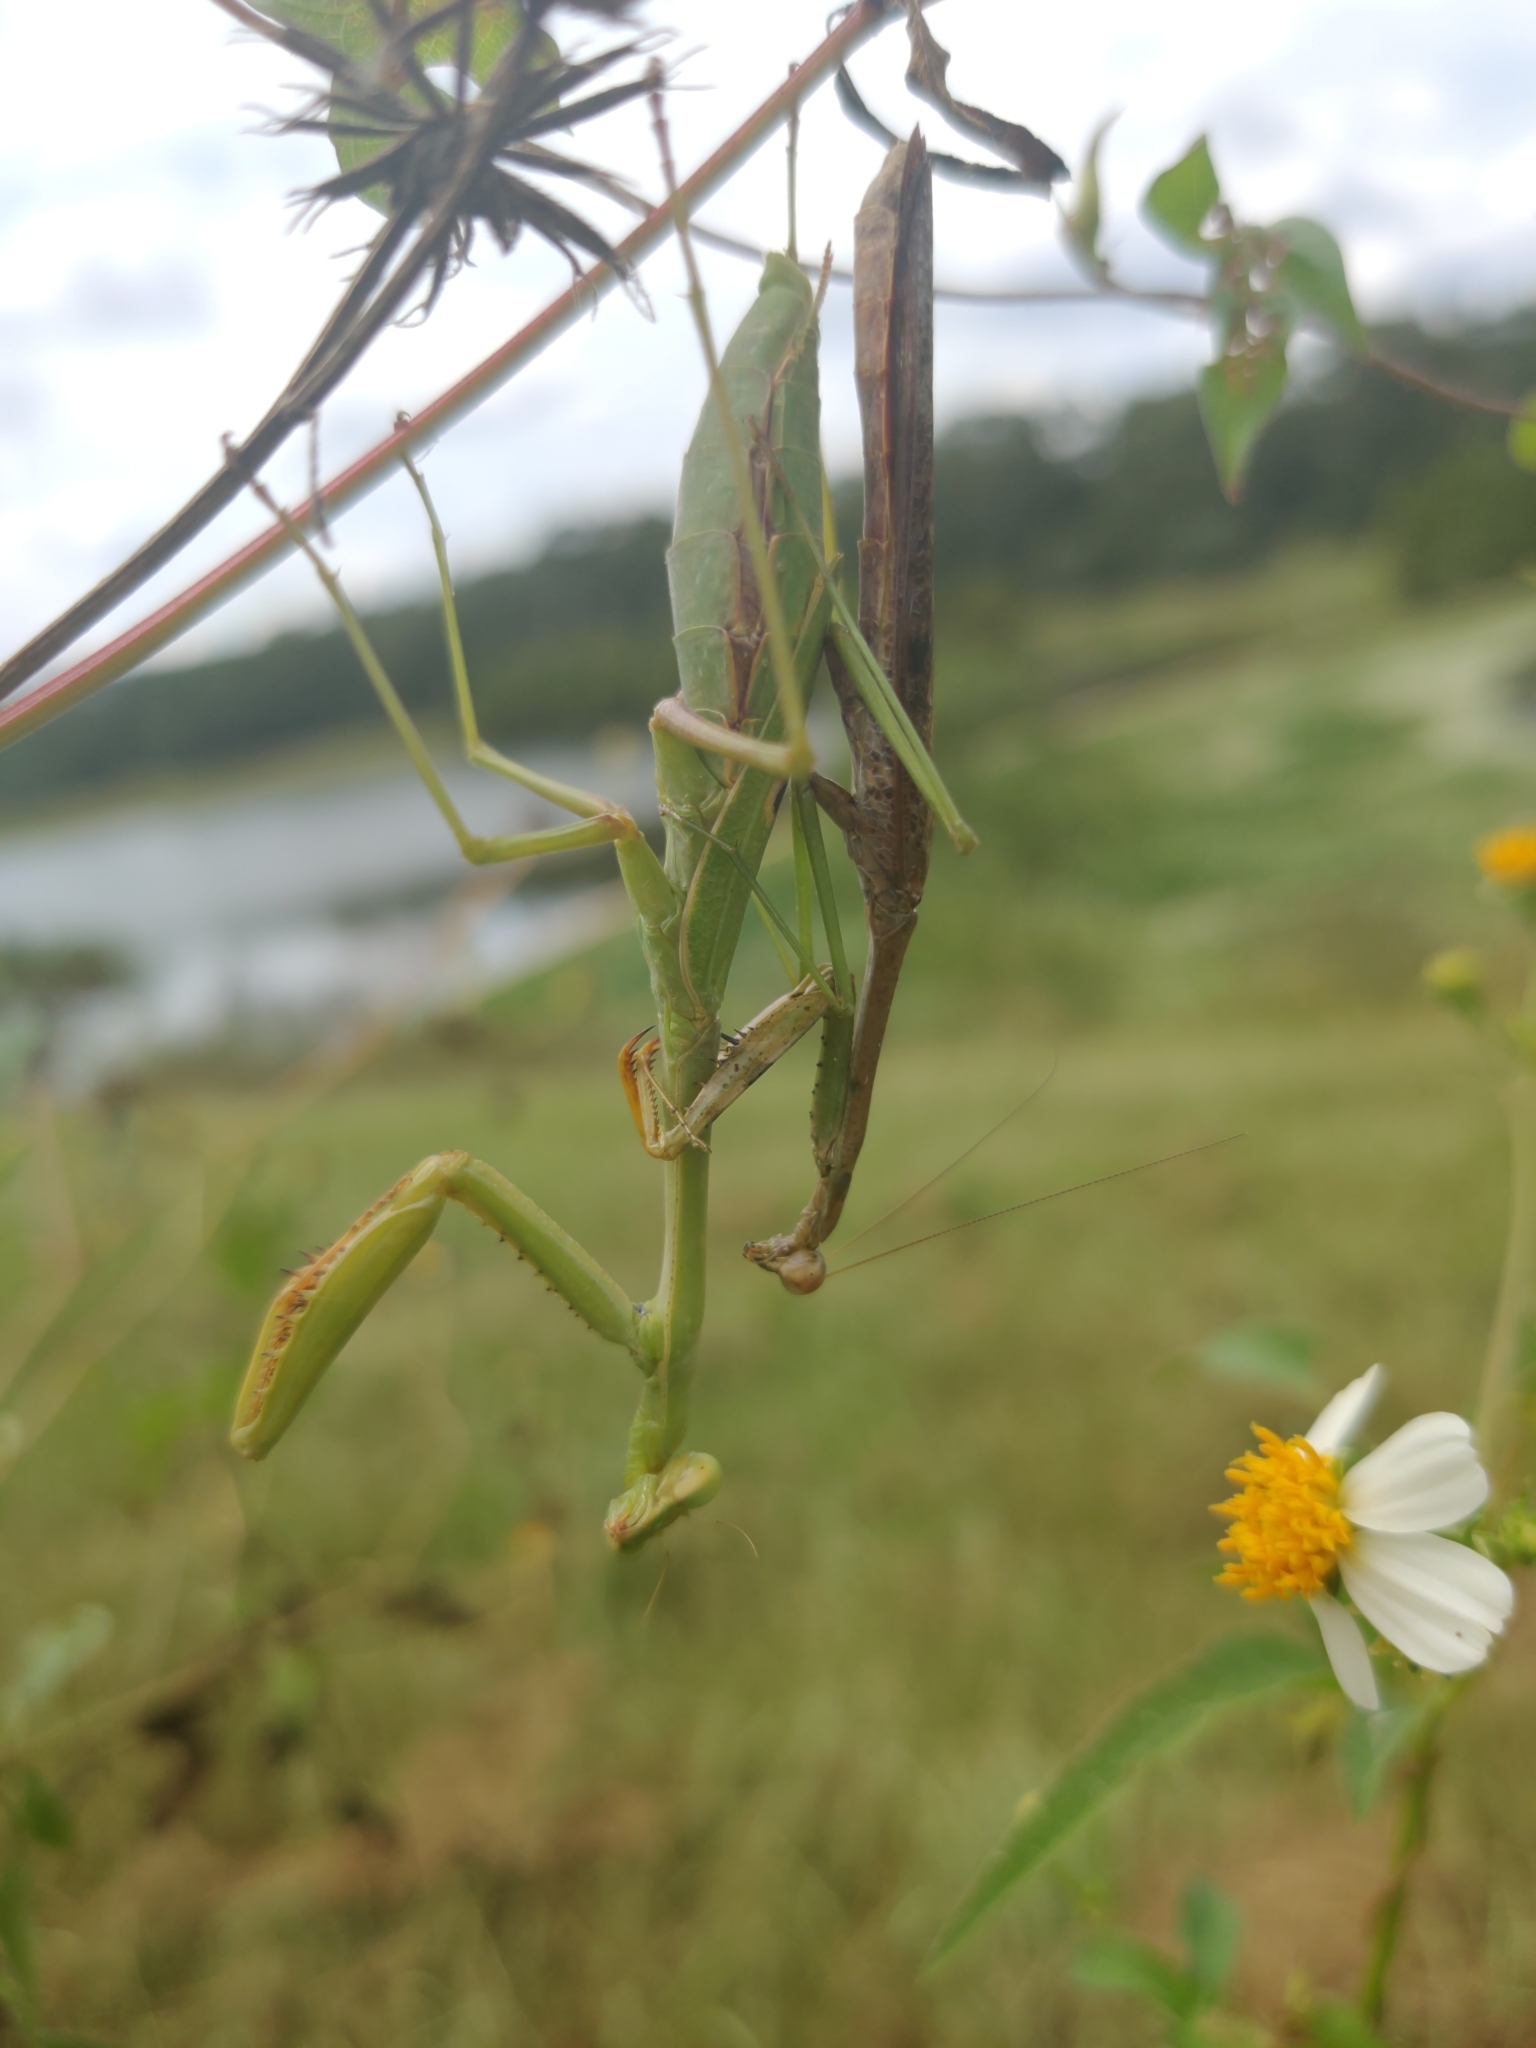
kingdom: Animalia
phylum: Arthropoda
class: Insecta
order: Mantodea
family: Mantidae
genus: Stagmomantis
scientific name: Stagmomantis carolina
